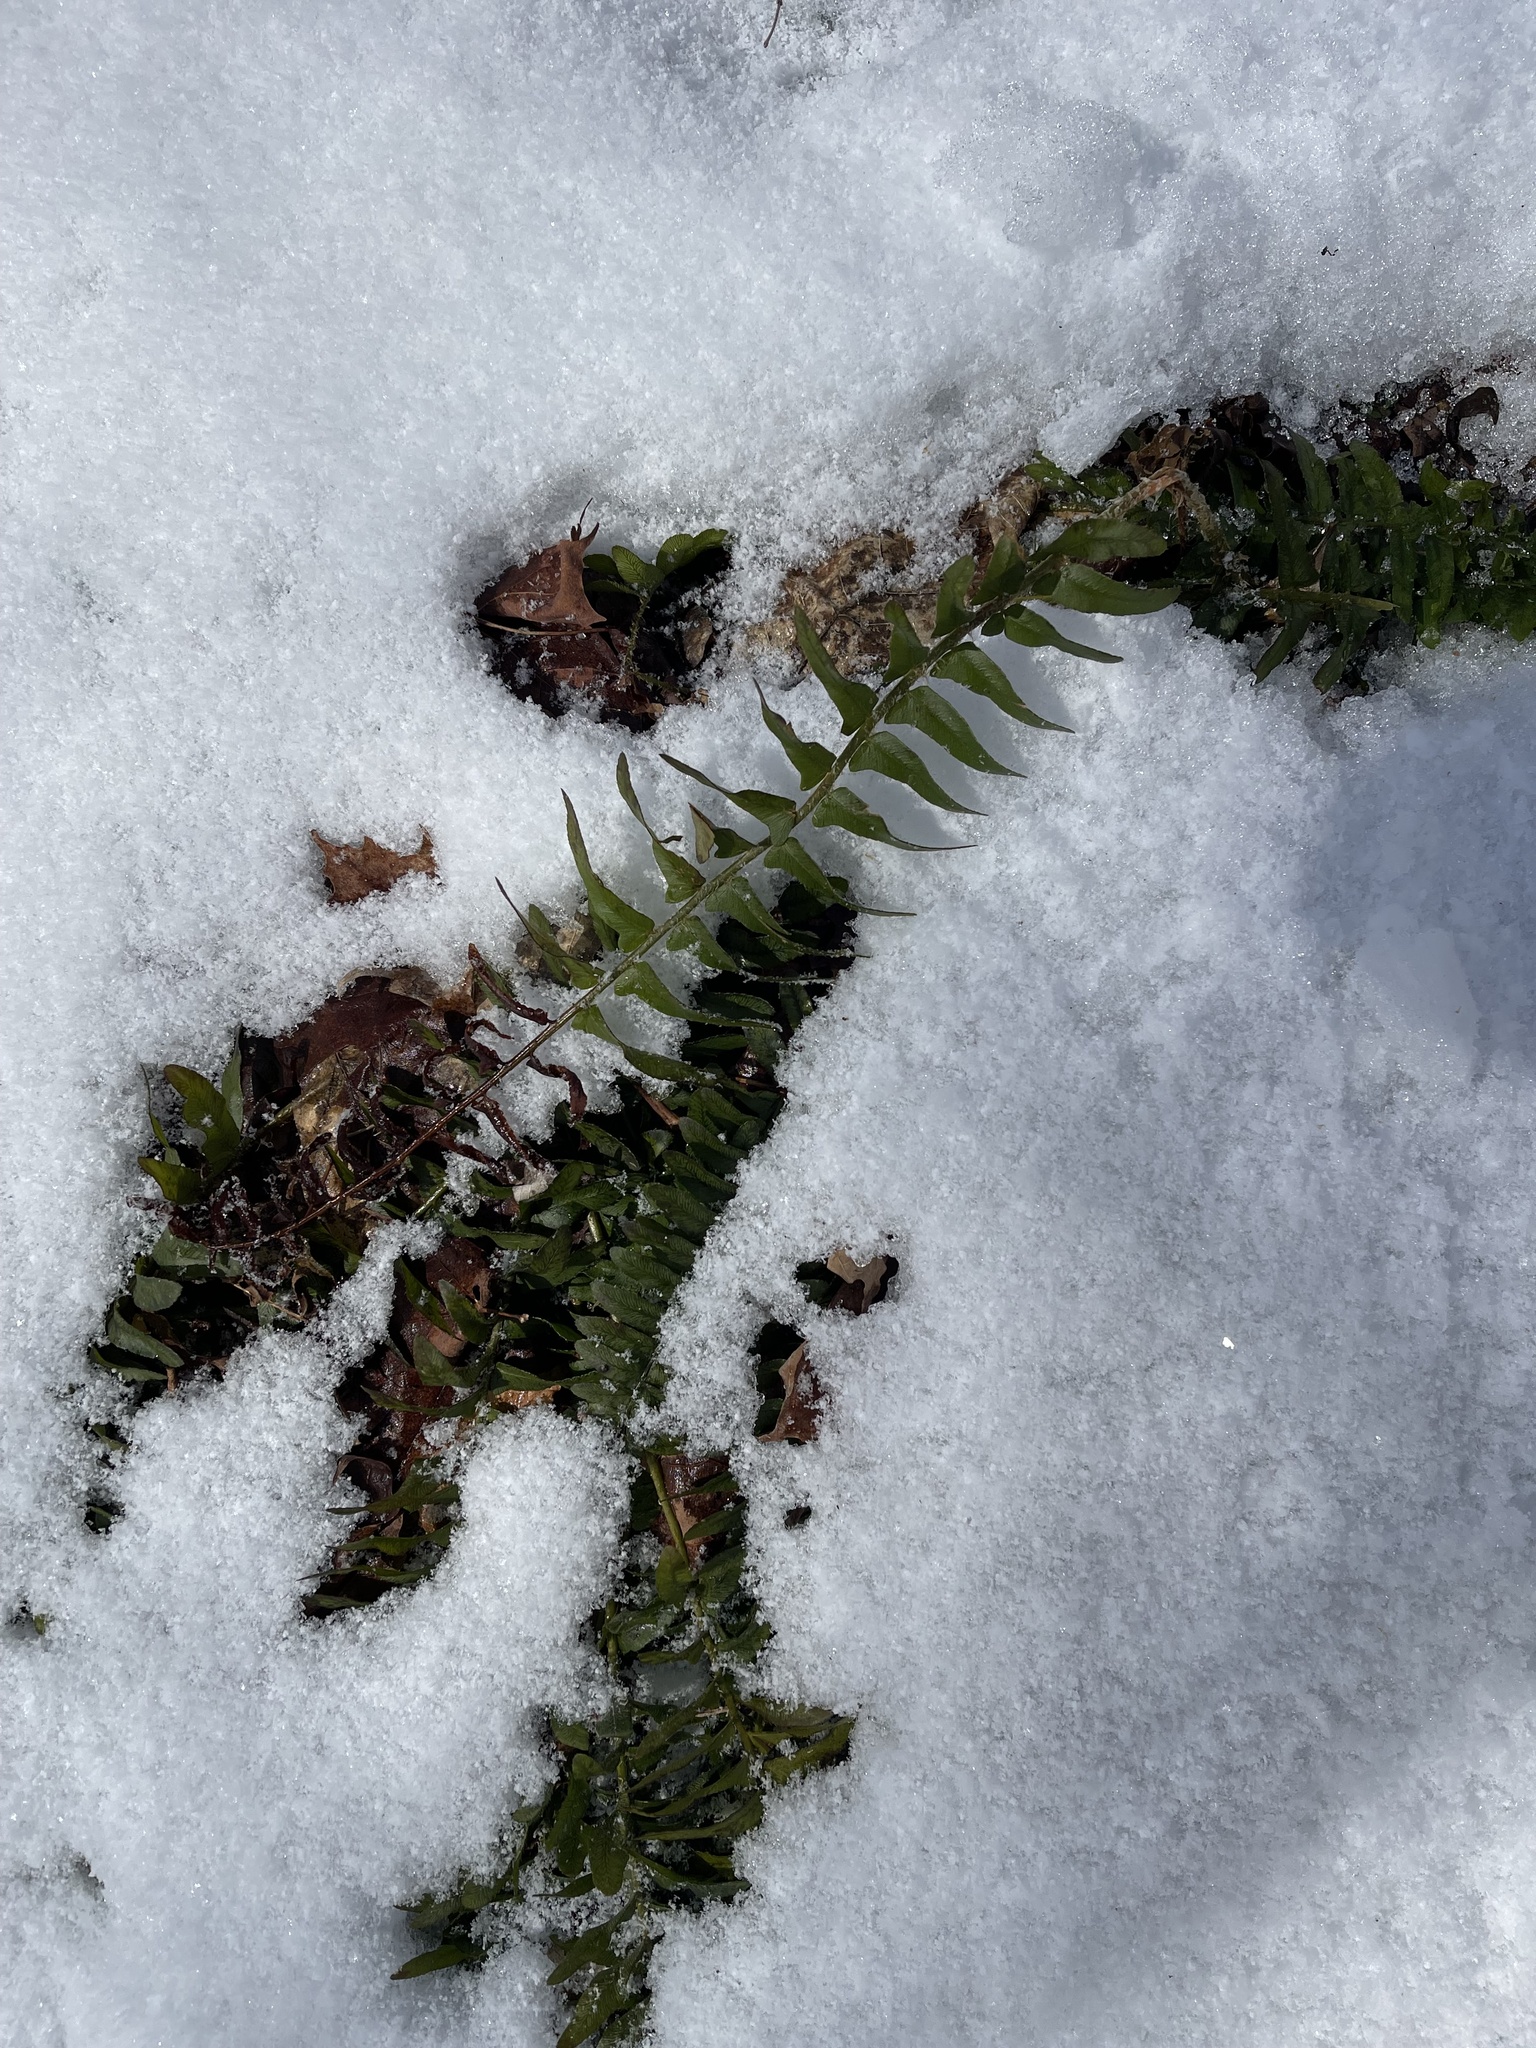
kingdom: Plantae
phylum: Tracheophyta
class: Polypodiopsida
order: Polypodiales
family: Dryopteridaceae
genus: Polystichum
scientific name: Polystichum acrostichoides
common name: Christmas fern
